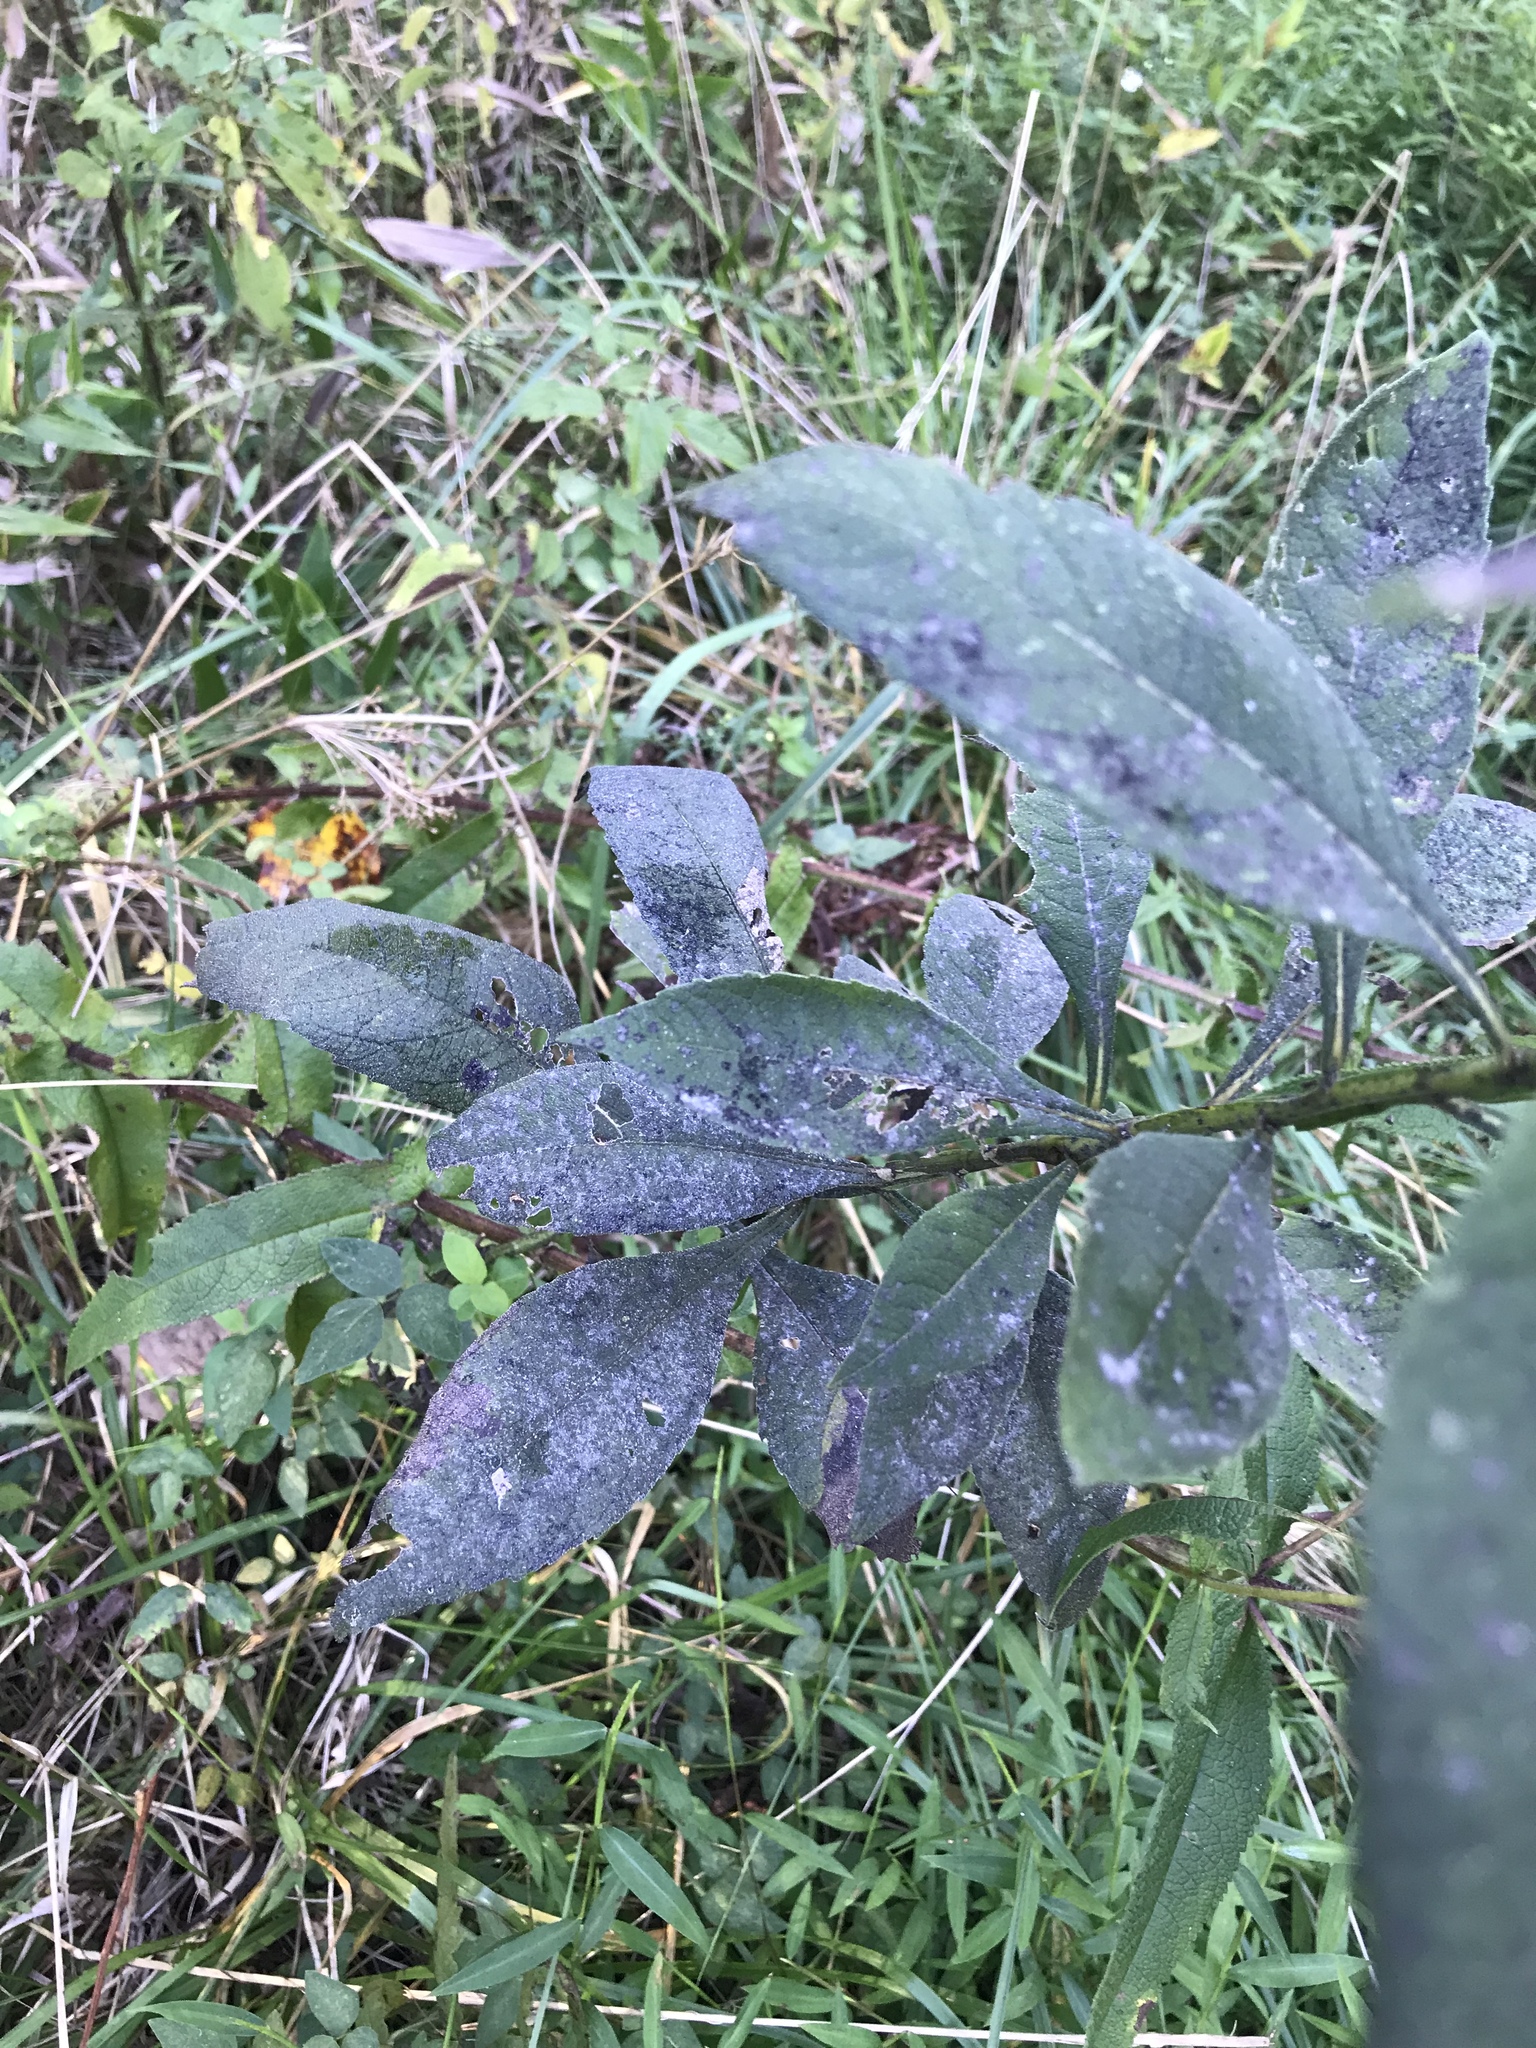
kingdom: Plantae
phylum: Tracheophyta
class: Magnoliopsida
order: Asterales
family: Asteraceae
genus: Verbesina
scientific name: Verbesina alternifolia
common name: Wingstem
